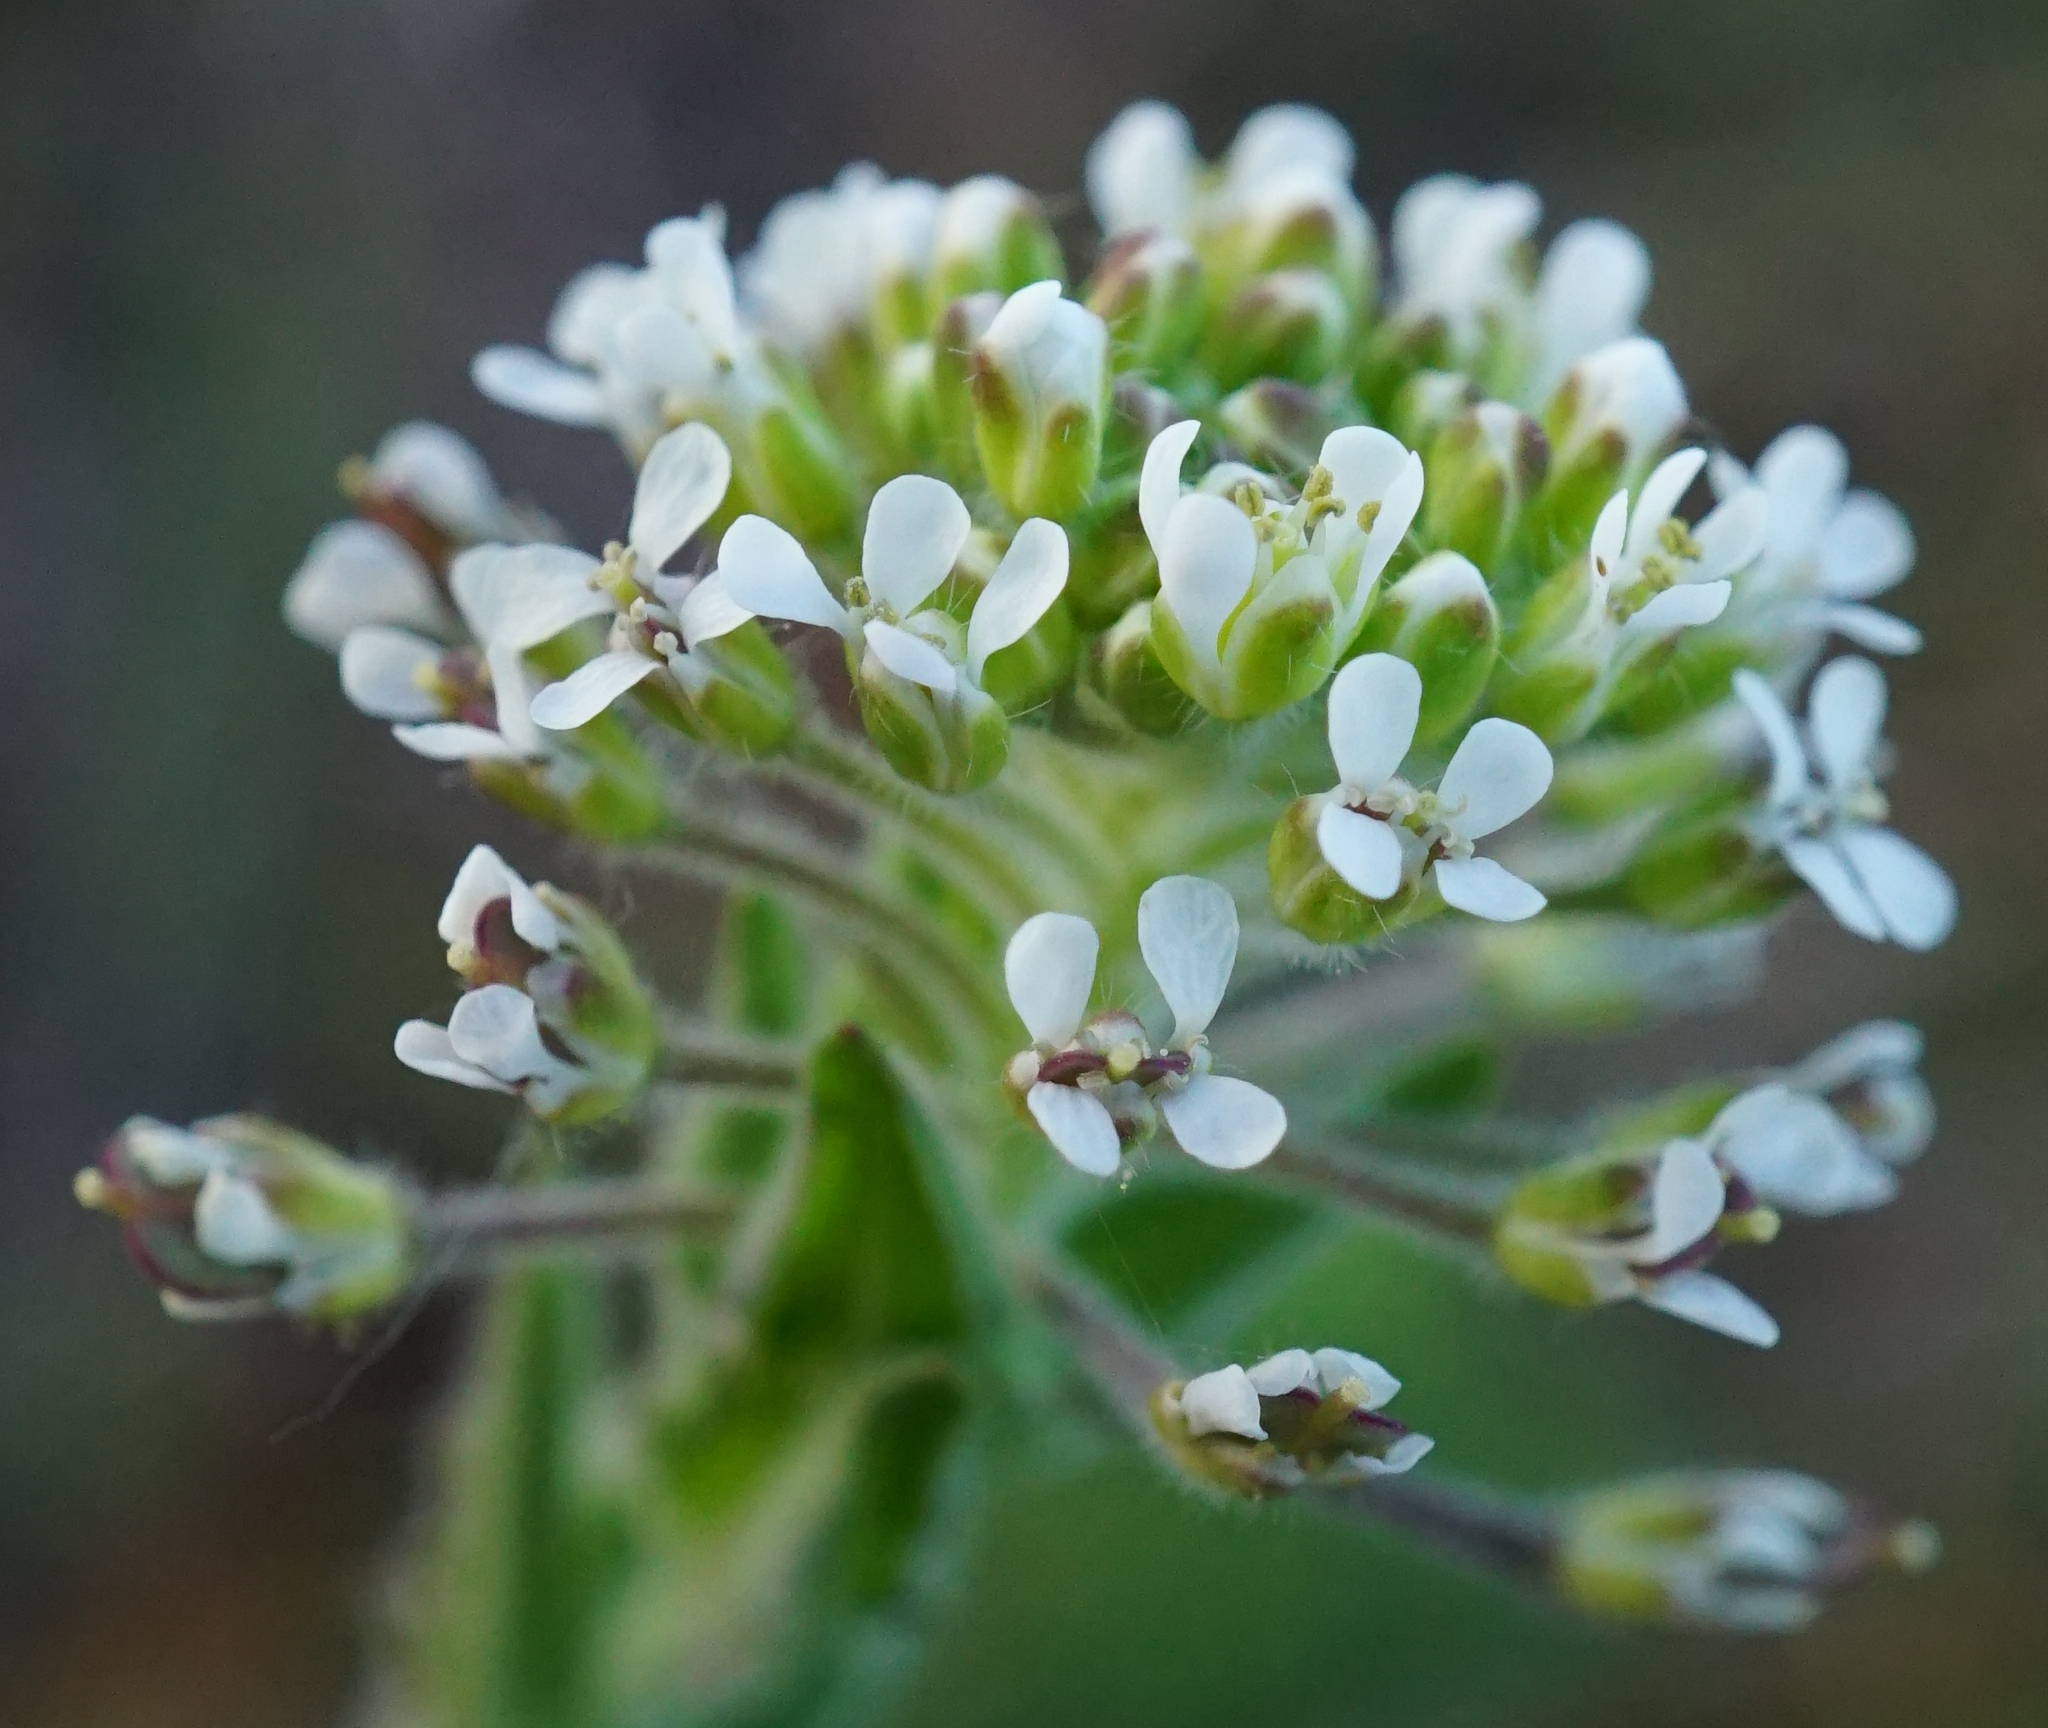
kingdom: Plantae
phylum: Tracheophyta
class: Magnoliopsida
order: Brassicales
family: Brassicaceae
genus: Lepidium
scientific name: Lepidium campestre
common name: Field pepperwort
